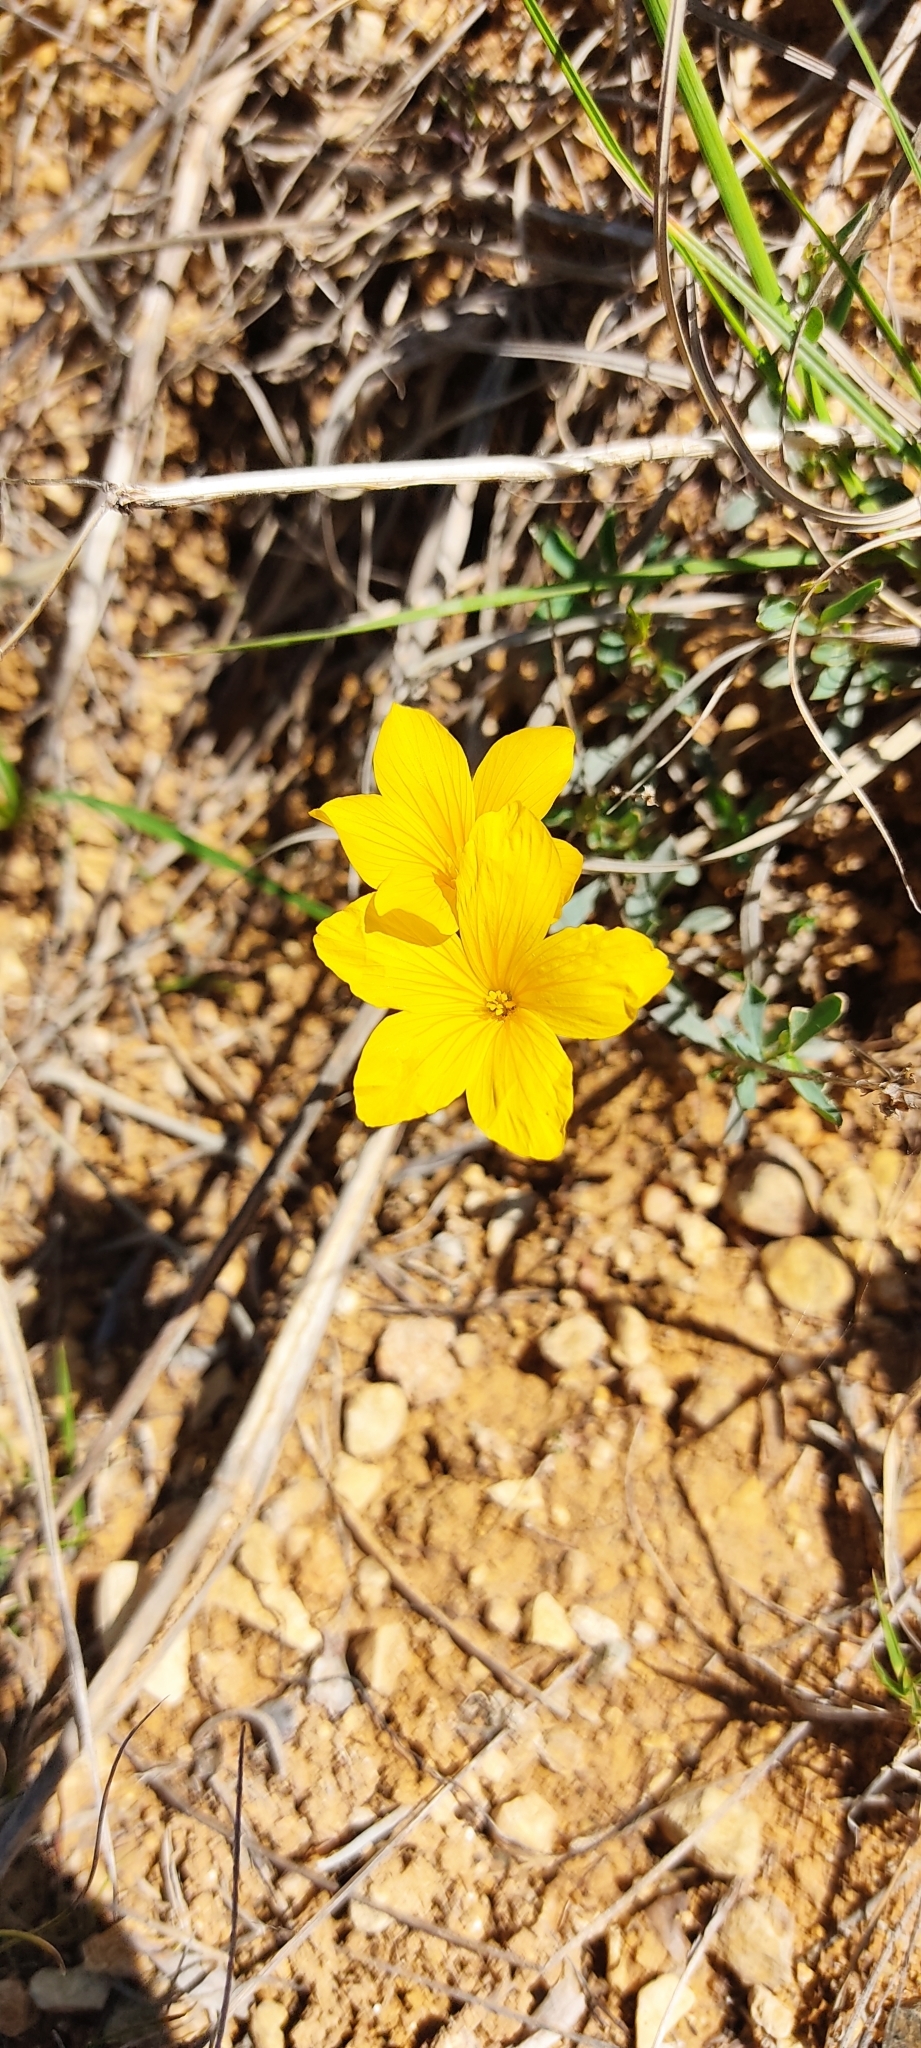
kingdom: Plantae
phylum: Tracheophyta
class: Magnoliopsida
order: Malpighiales
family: Linaceae
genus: Linum
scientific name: Linum campanulatum
